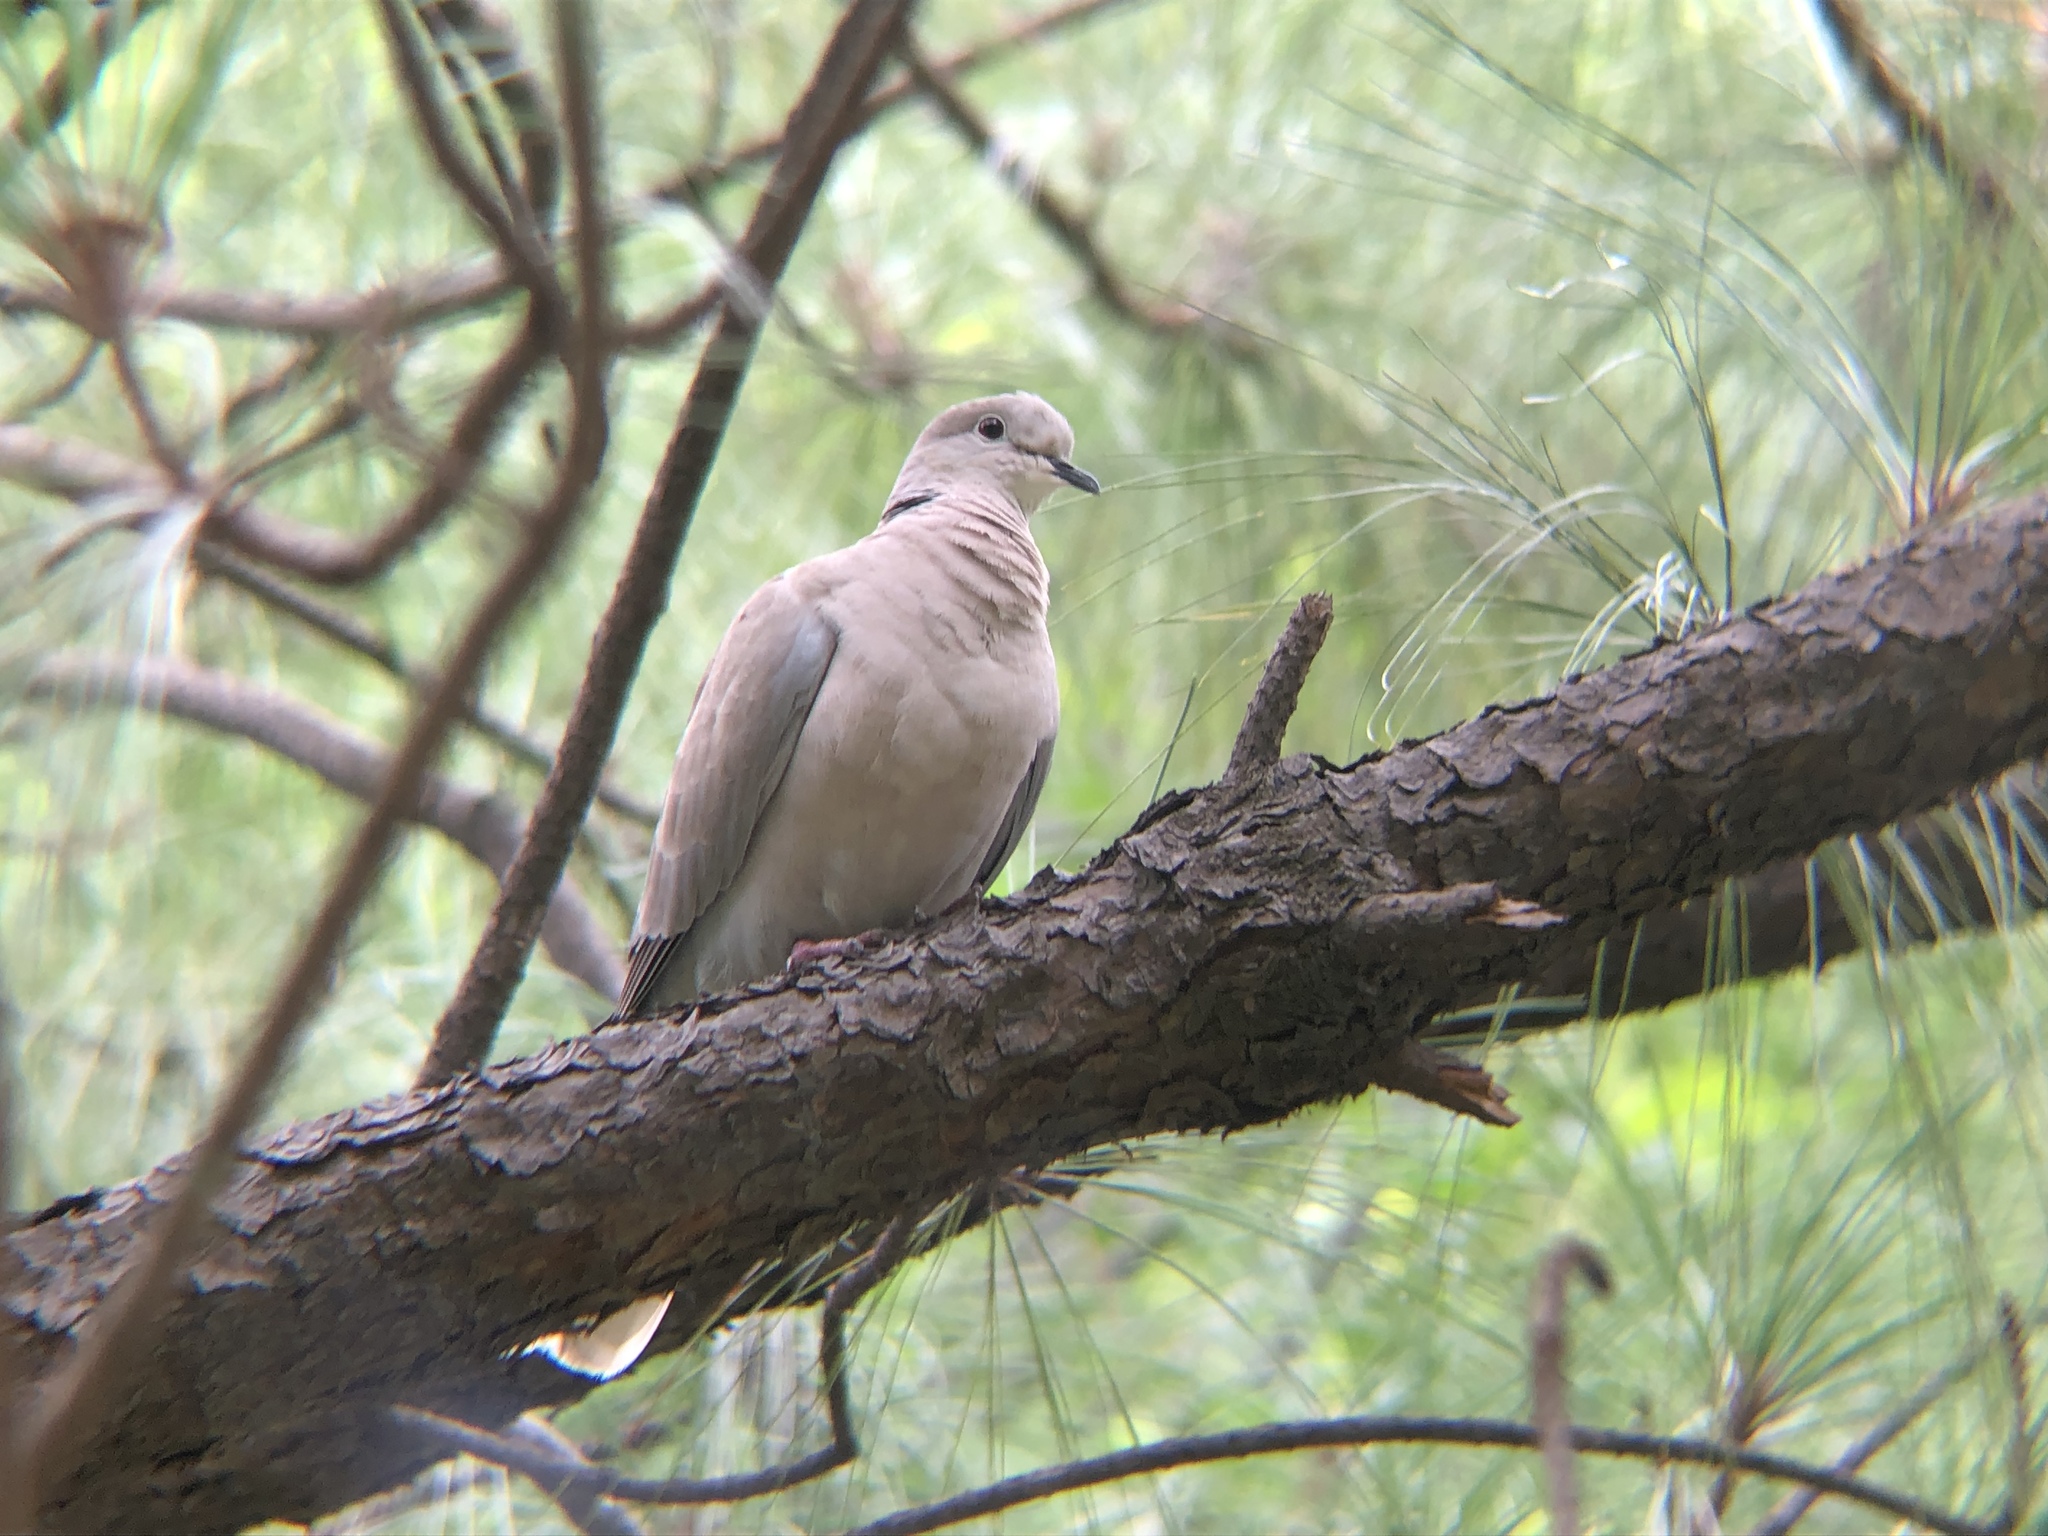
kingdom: Animalia
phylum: Chordata
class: Aves
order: Columbiformes
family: Columbidae
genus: Streptopelia
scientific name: Streptopelia decaocto
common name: Eurasian collared dove
